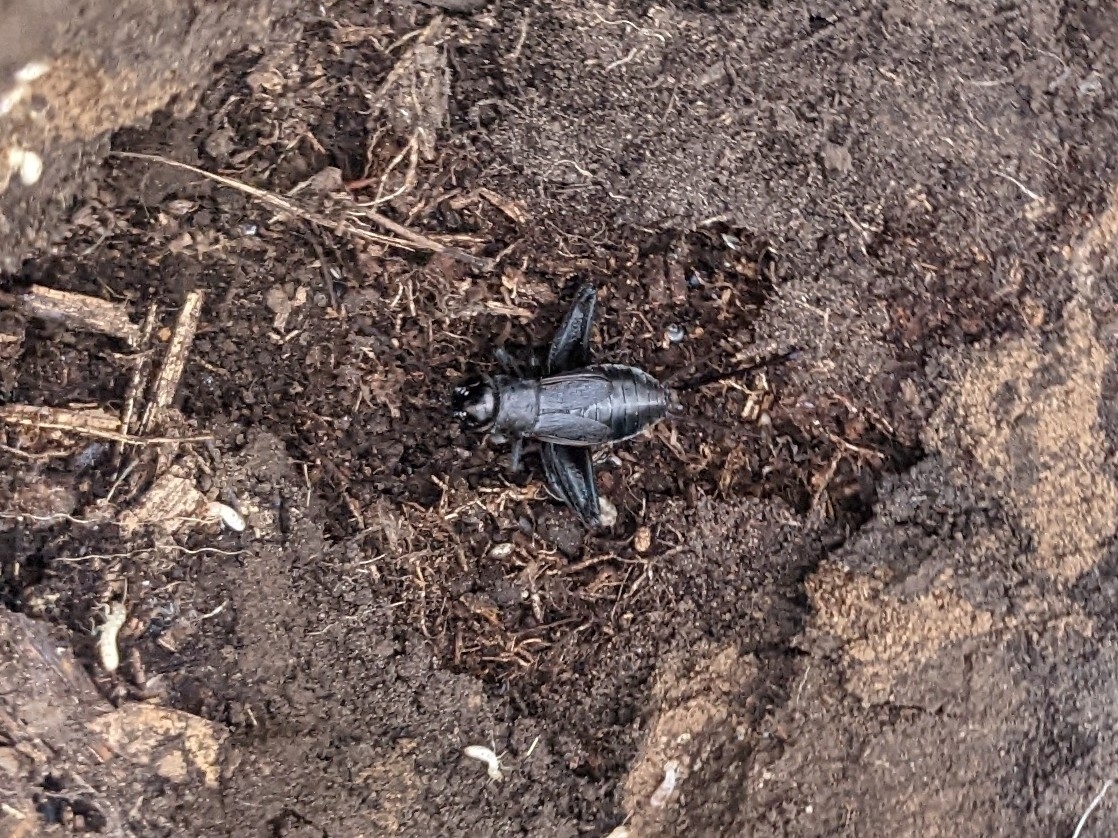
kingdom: Animalia
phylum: Arthropoda
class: Insecta
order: Orthoptera
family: Gryllidae
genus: Gryllus
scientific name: Gryllus pennsylvanicus
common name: Fall field cricket
